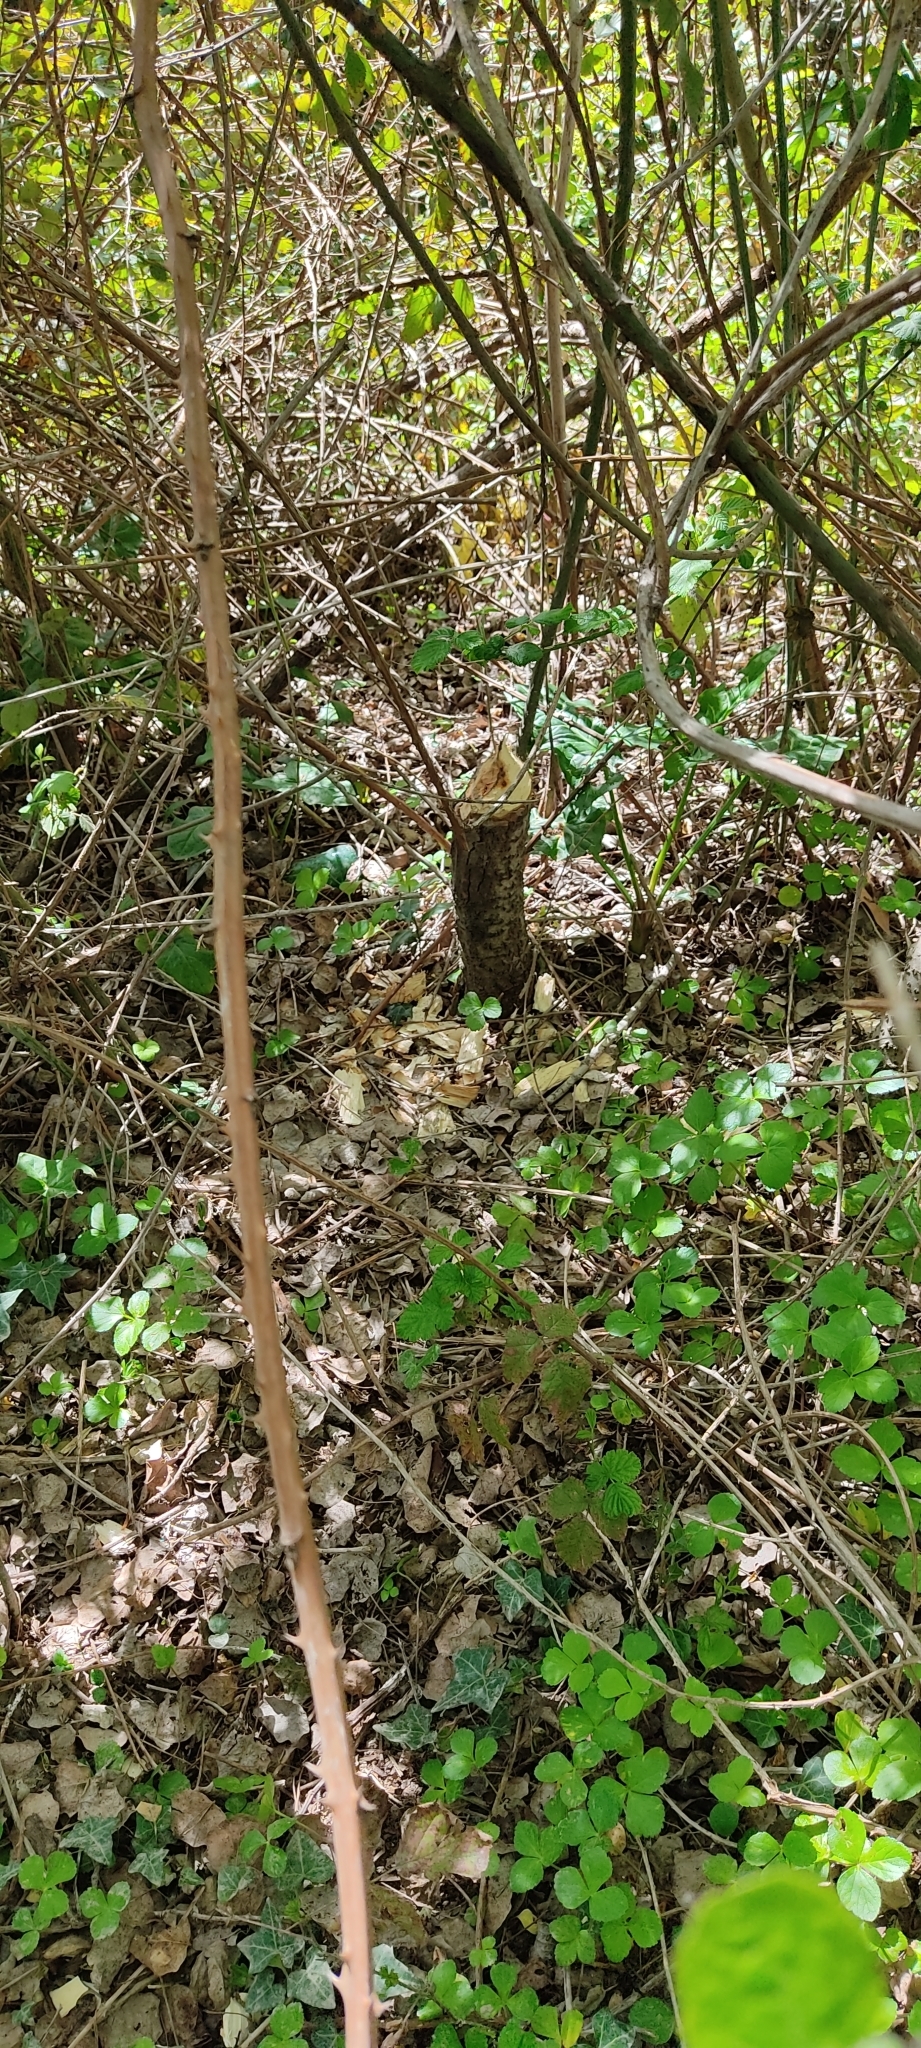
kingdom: Animalia
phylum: Chordata
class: Mammalia
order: Rodentia
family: Castoridae
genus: Castor
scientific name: Castor fiber
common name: Eurasian beaver
